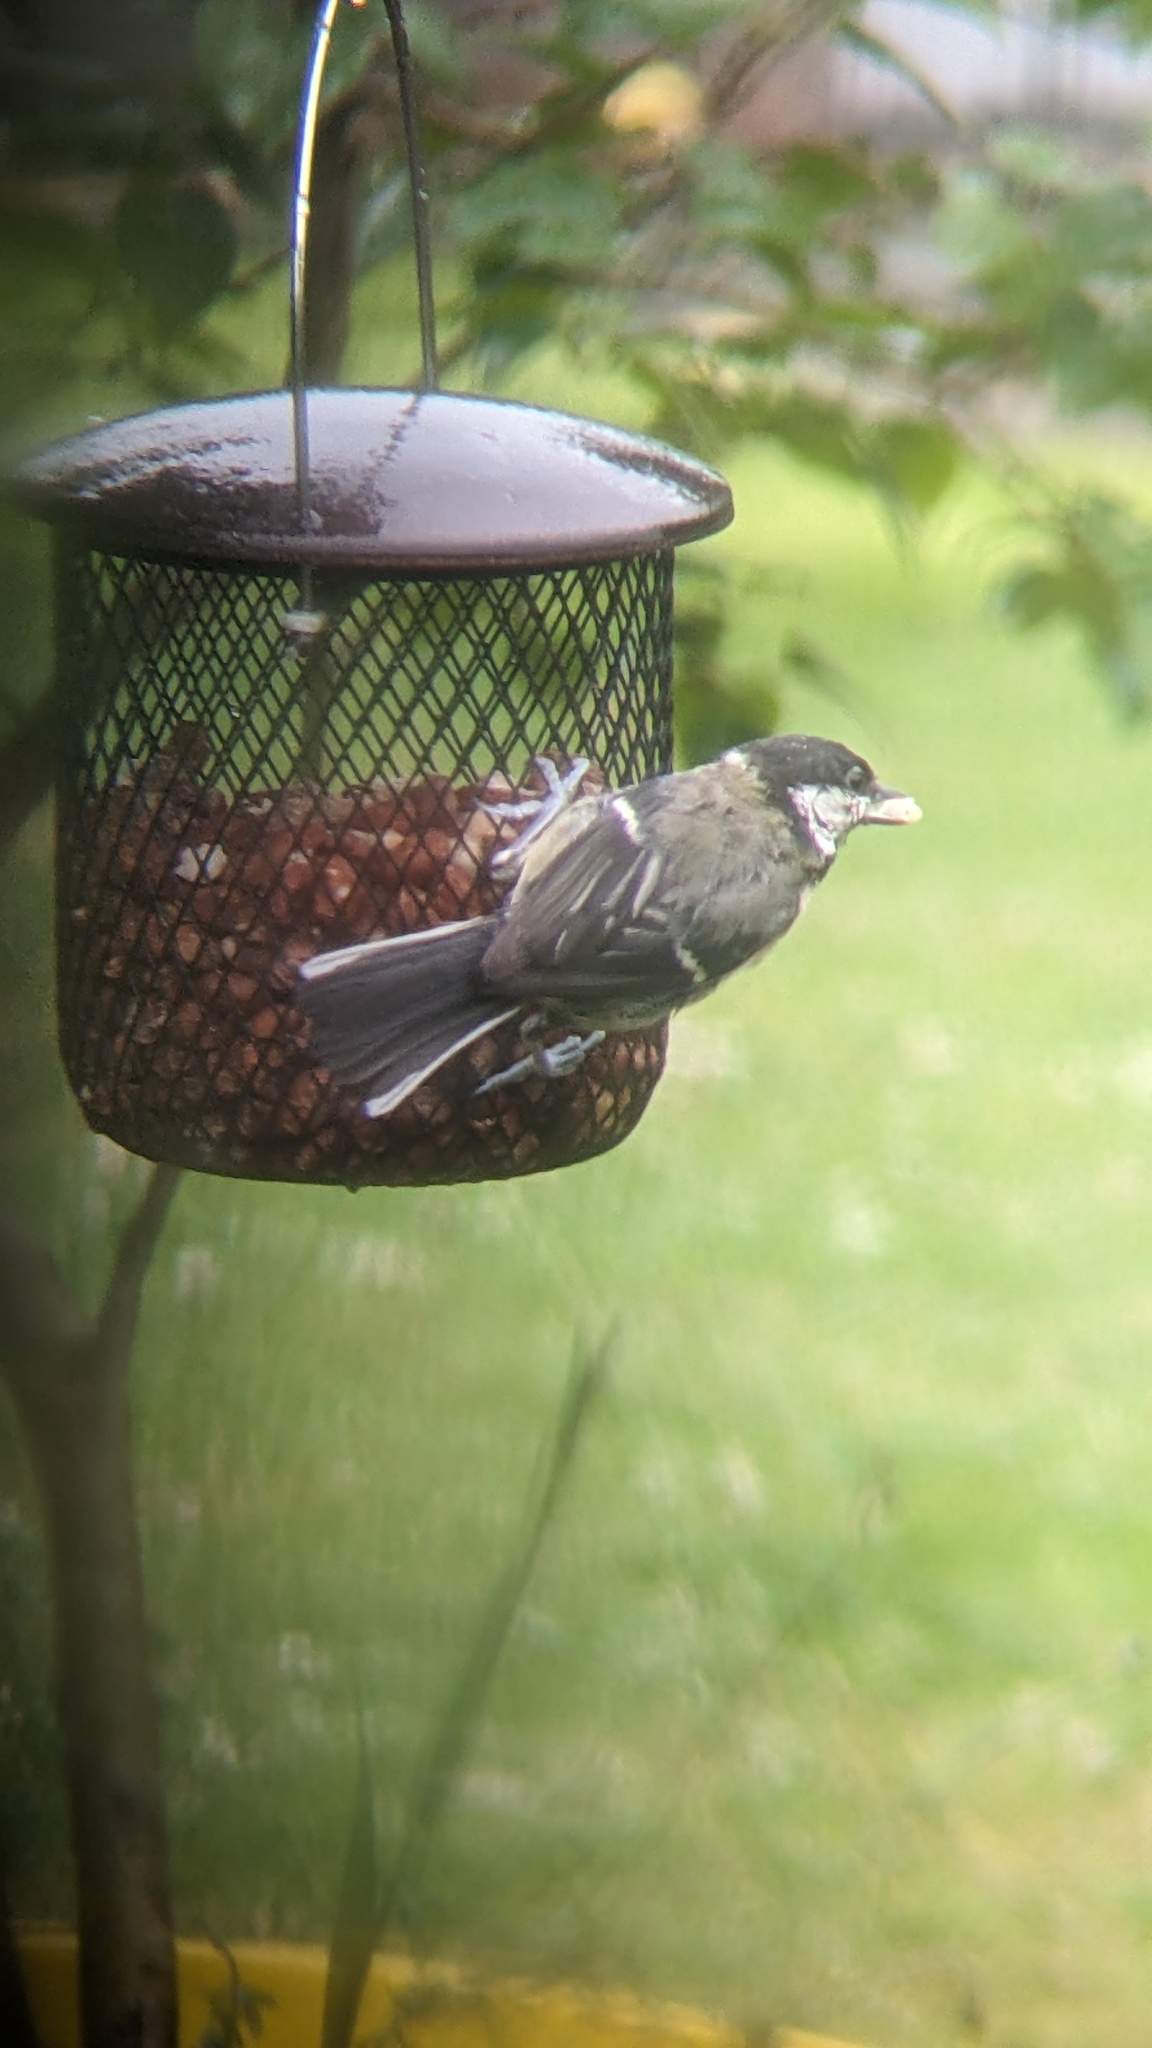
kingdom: Animalia
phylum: Chordata
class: Aves
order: Passeriformes
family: Paridae
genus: Parus
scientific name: Parus major
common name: Great tit
